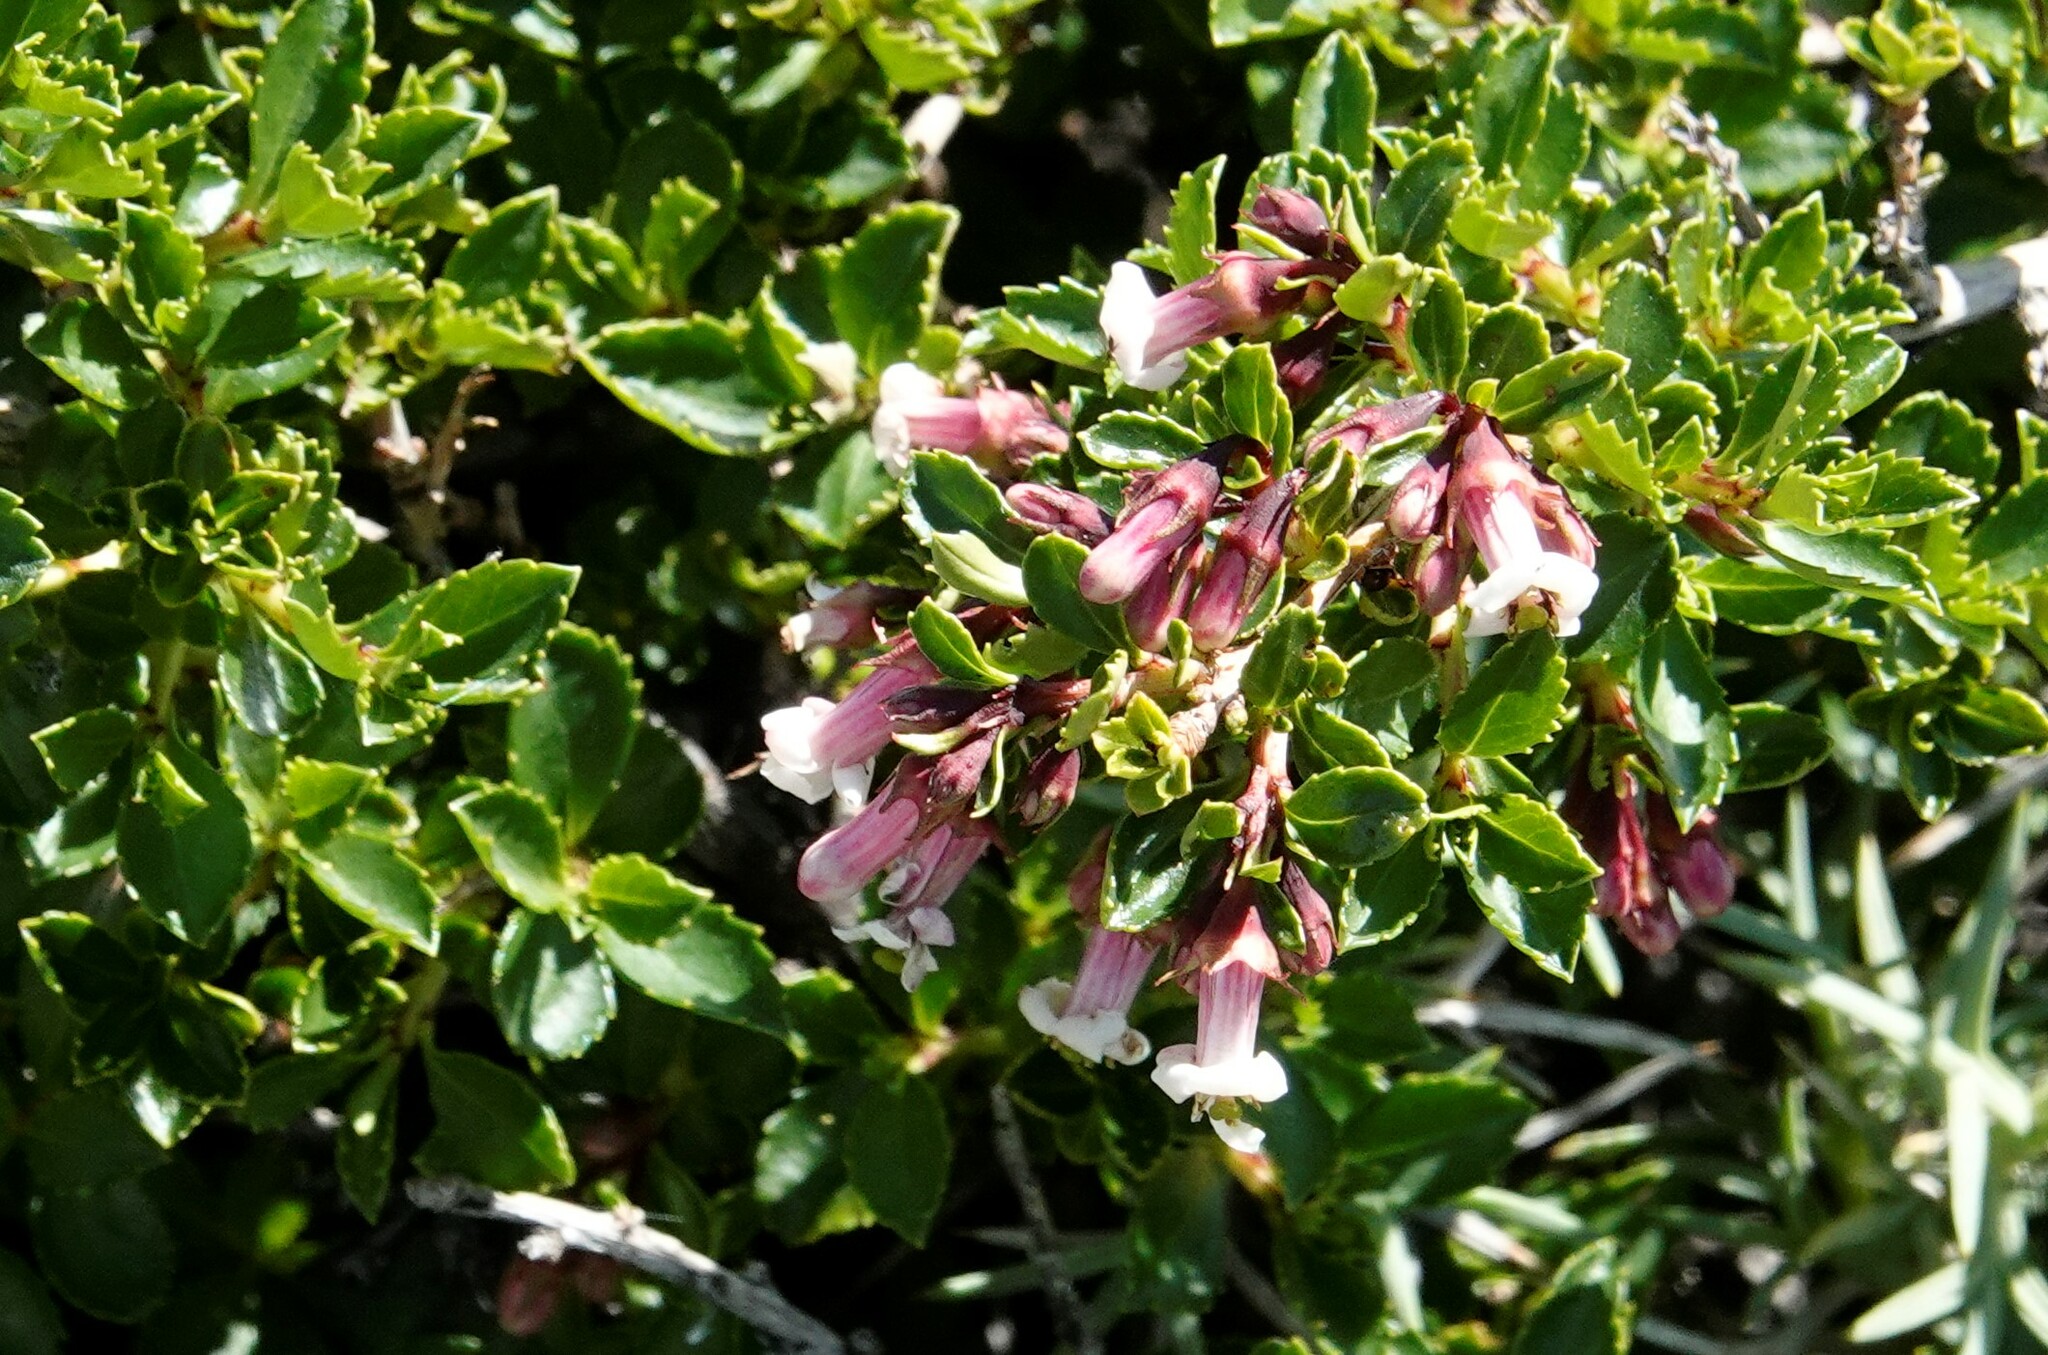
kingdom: Plantae
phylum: Tracheophyta
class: Magnoliopsida
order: Escalloniales
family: Escalloniaceae
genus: Escallonia
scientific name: Escallonia alpina
